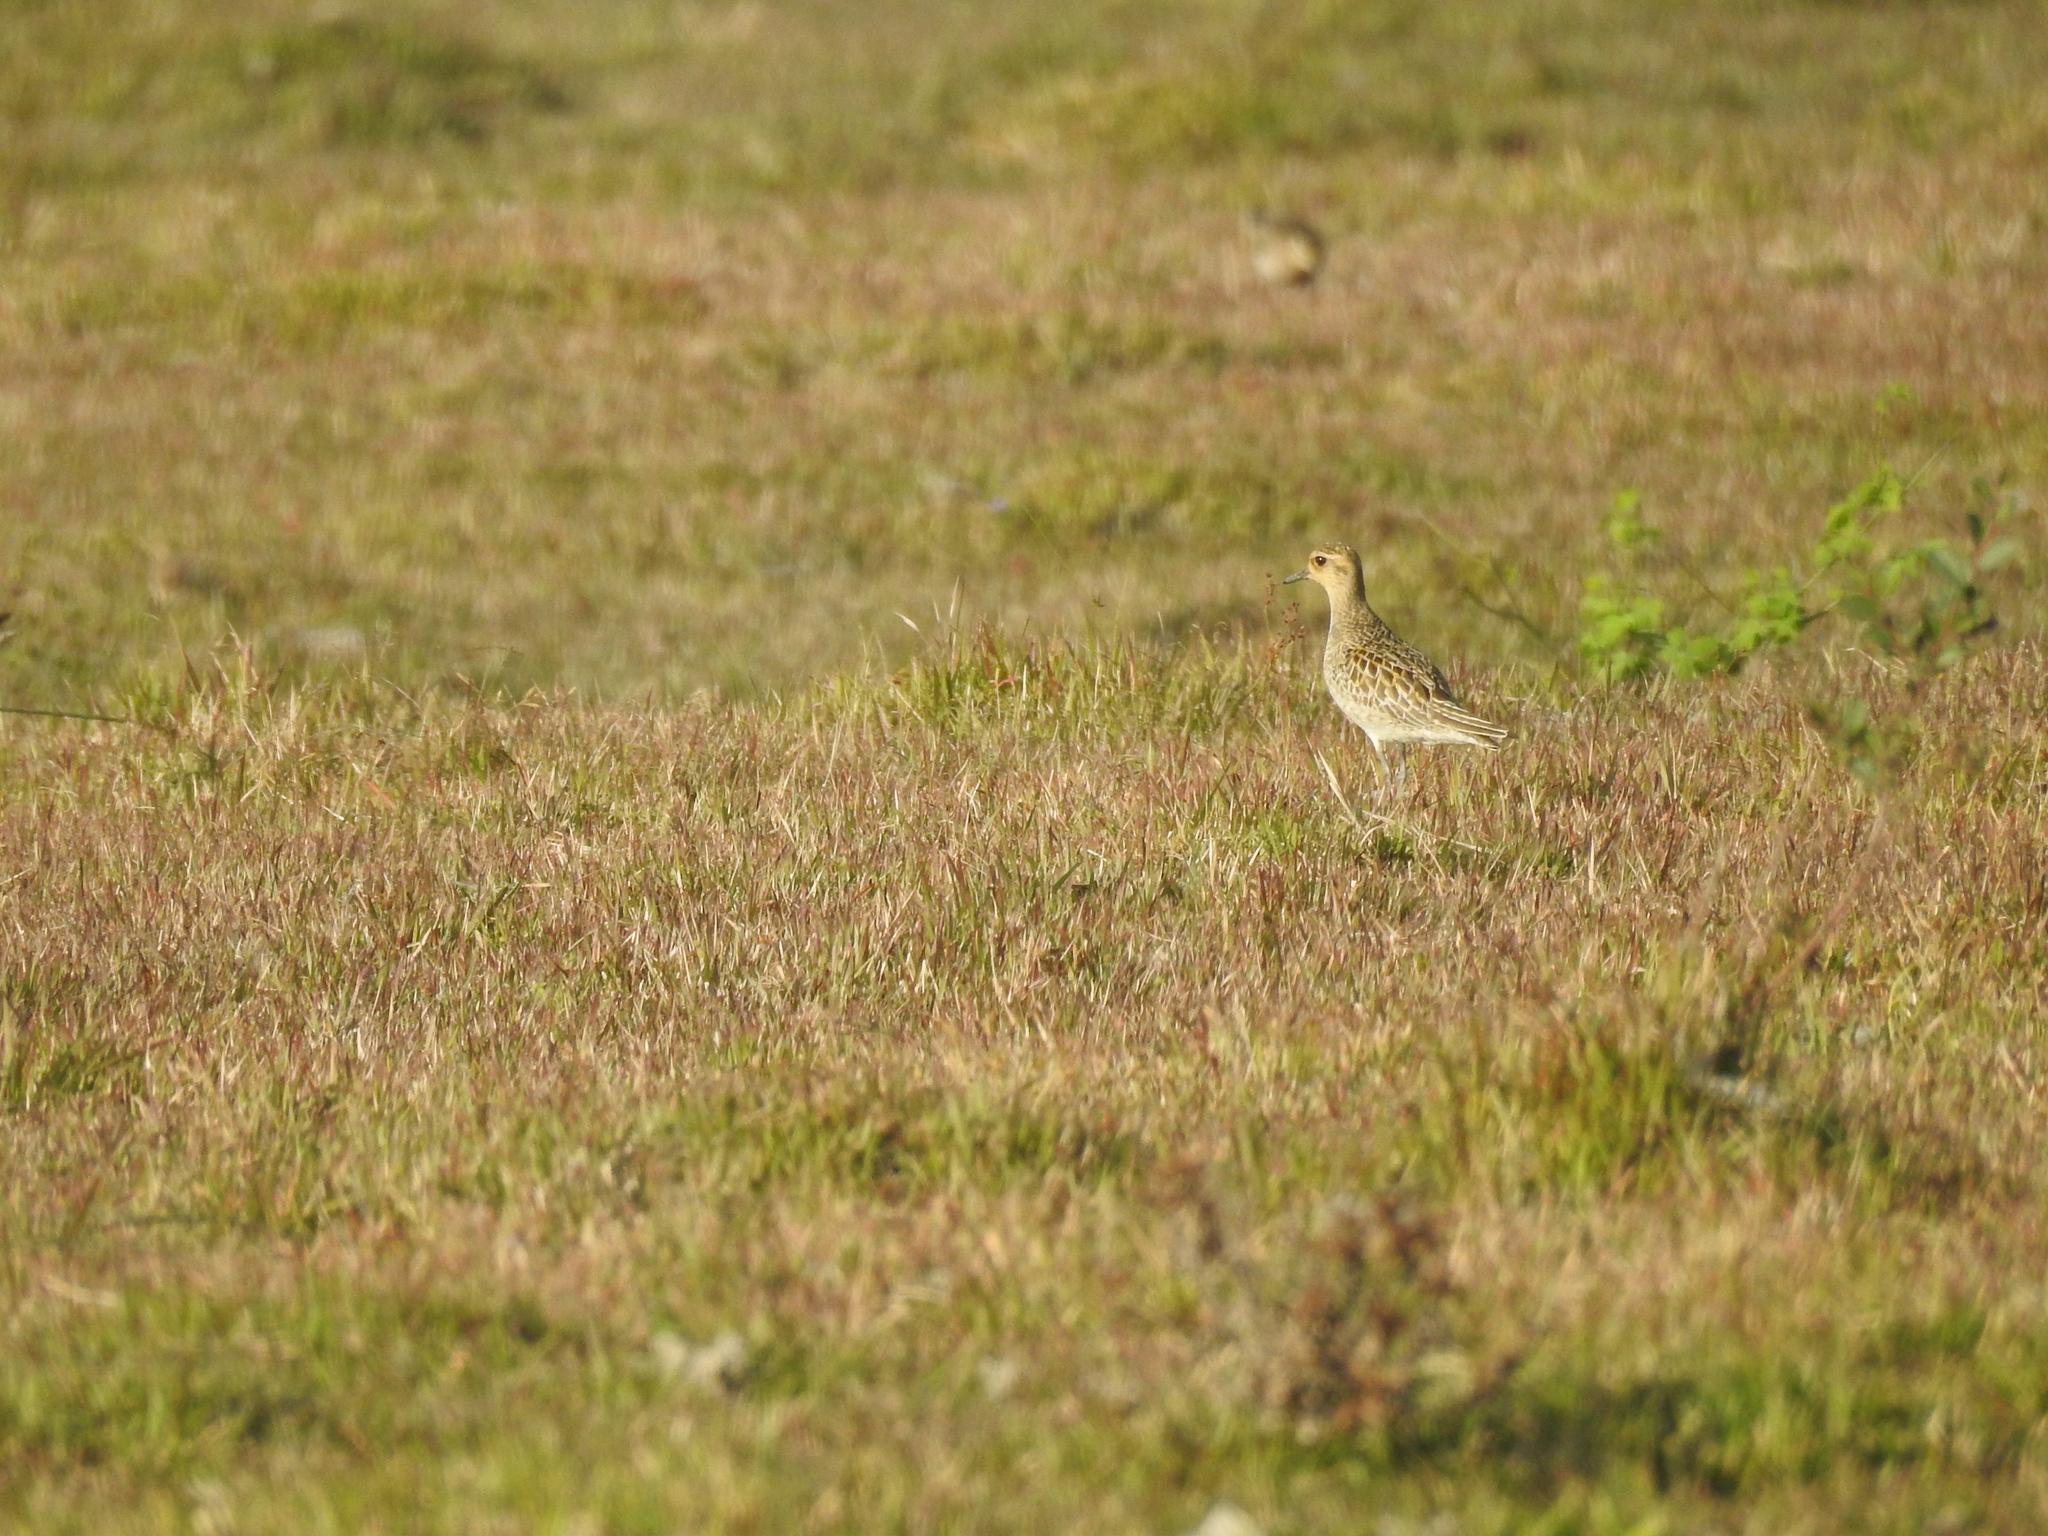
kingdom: Animalia
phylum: Chordata
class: Aves
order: Charadriiformes
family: Charadriidae
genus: Pluvialis
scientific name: Pluvialis fulva
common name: Pacific golden plover
